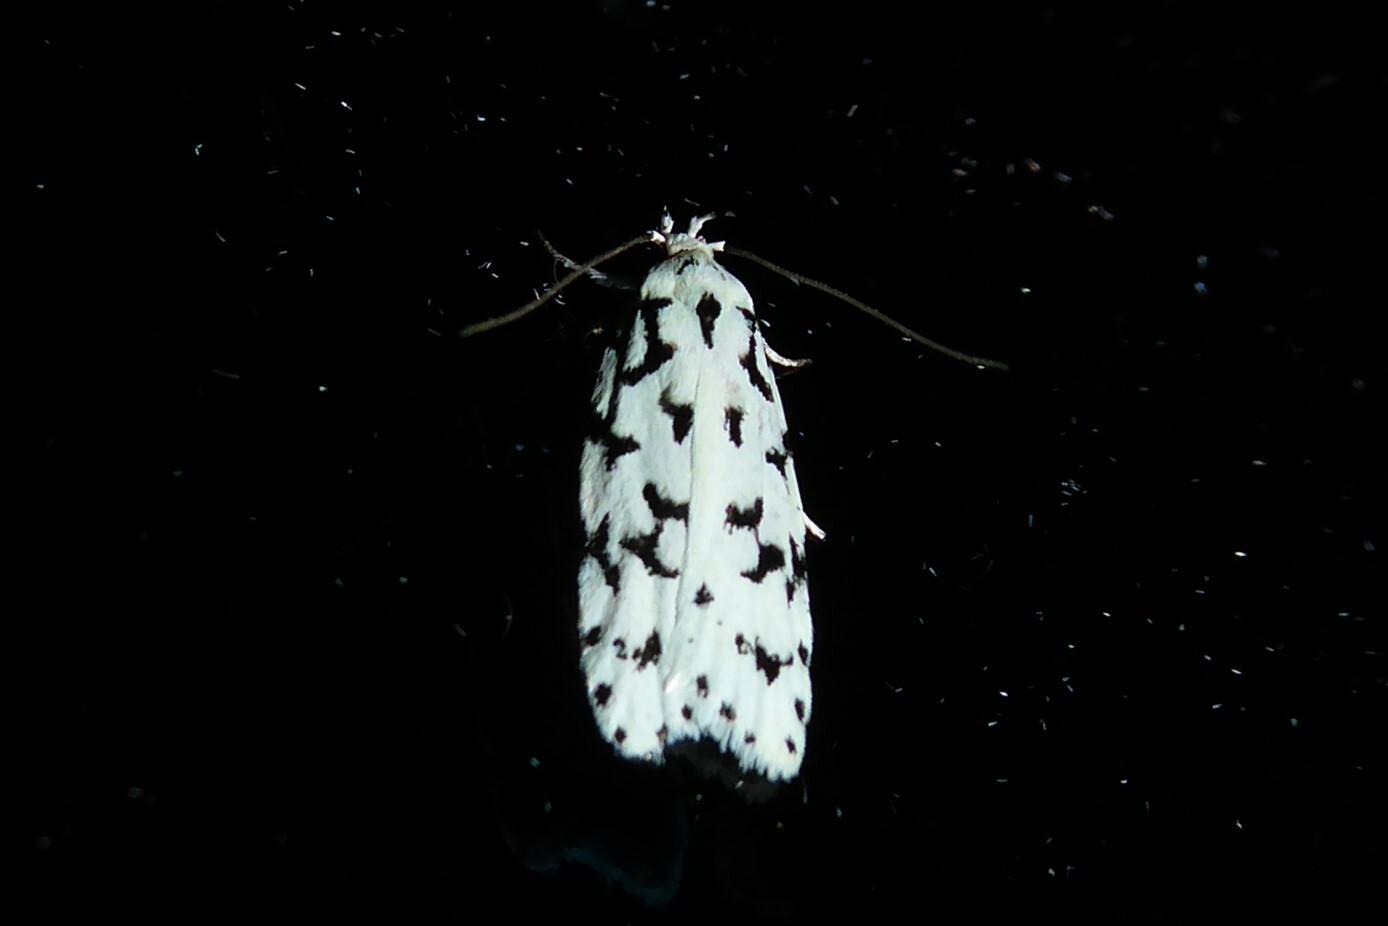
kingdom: Animalia
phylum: Arthropoda
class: Insecta
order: Lepidoptera
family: Oecophoridae
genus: Izatha
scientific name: Izatha huttoni
